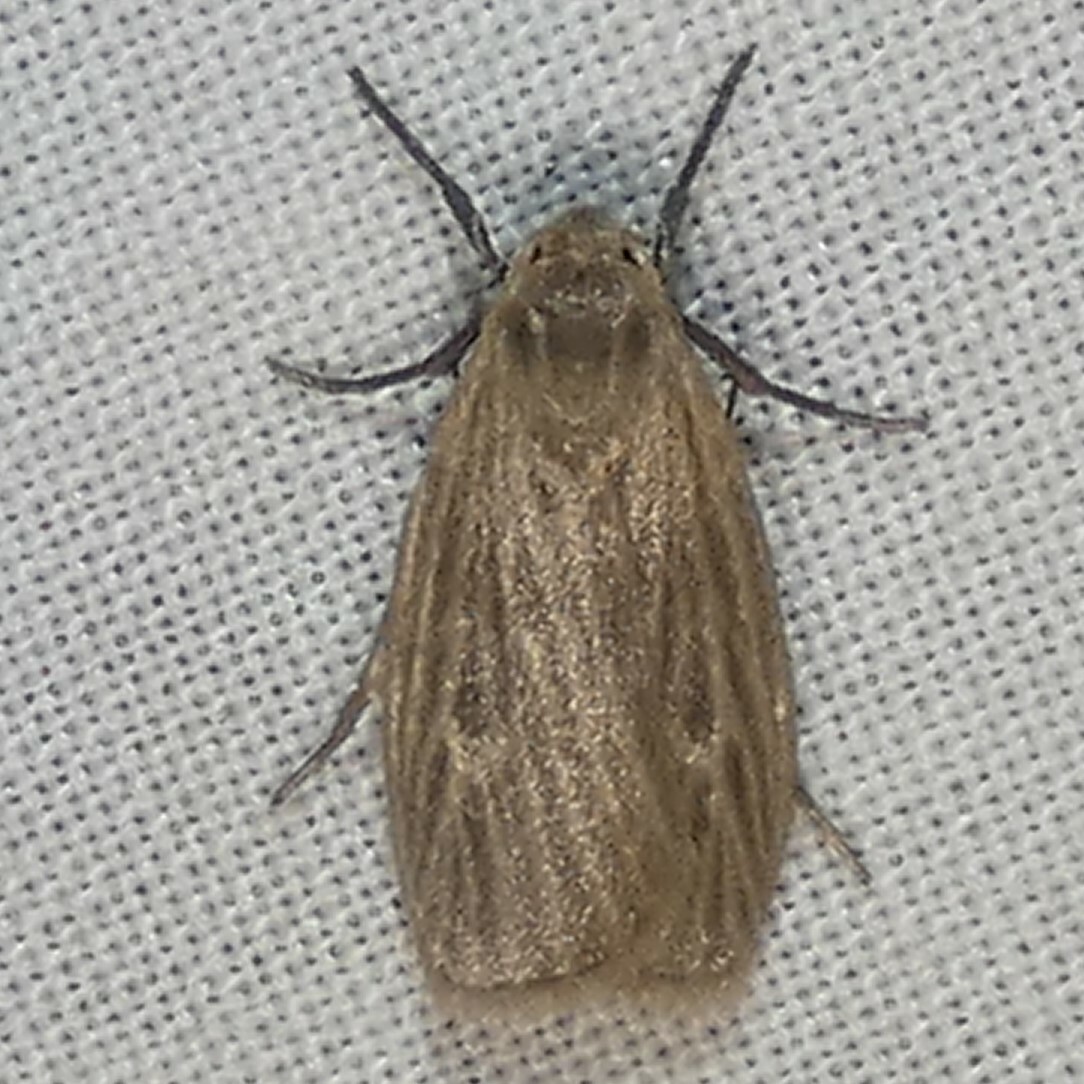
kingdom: Animalia
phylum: Arthropoda
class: Insecta
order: Lepidoptera
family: Erebidae
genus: Crambidia
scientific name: Crambidia pallida
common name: Pale lichen moth
